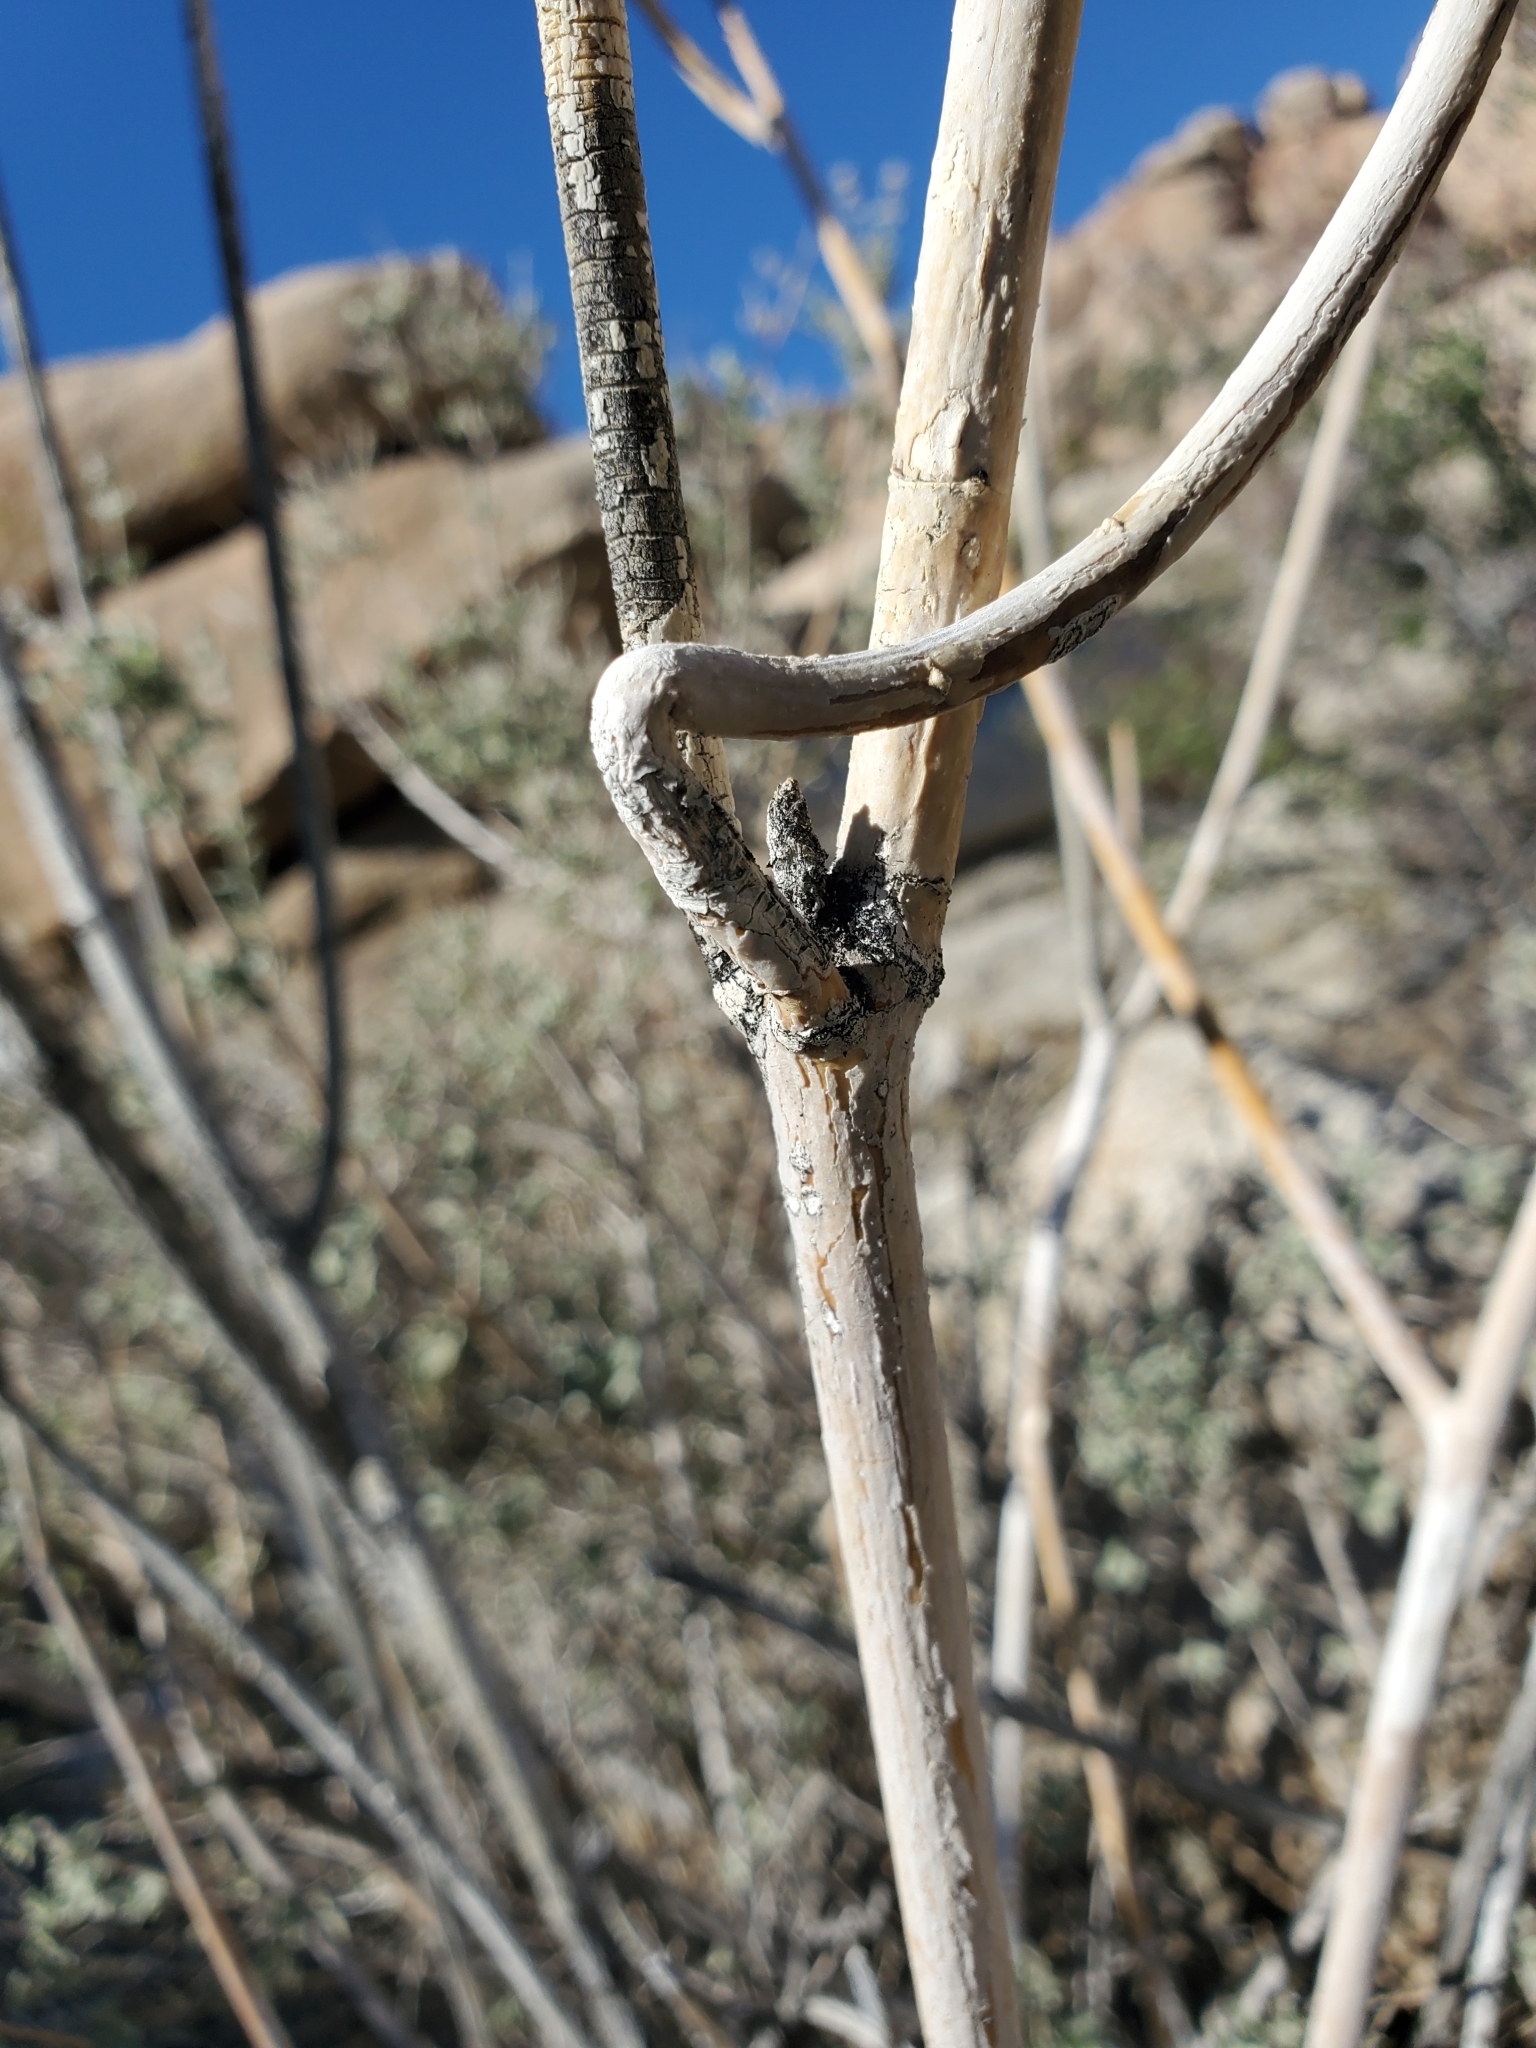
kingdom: Plantae
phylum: Tracheophyta
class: Magnoliopsida
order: Gentianales
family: Apocynaceae
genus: Asclepias
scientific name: Asclepias albicans
